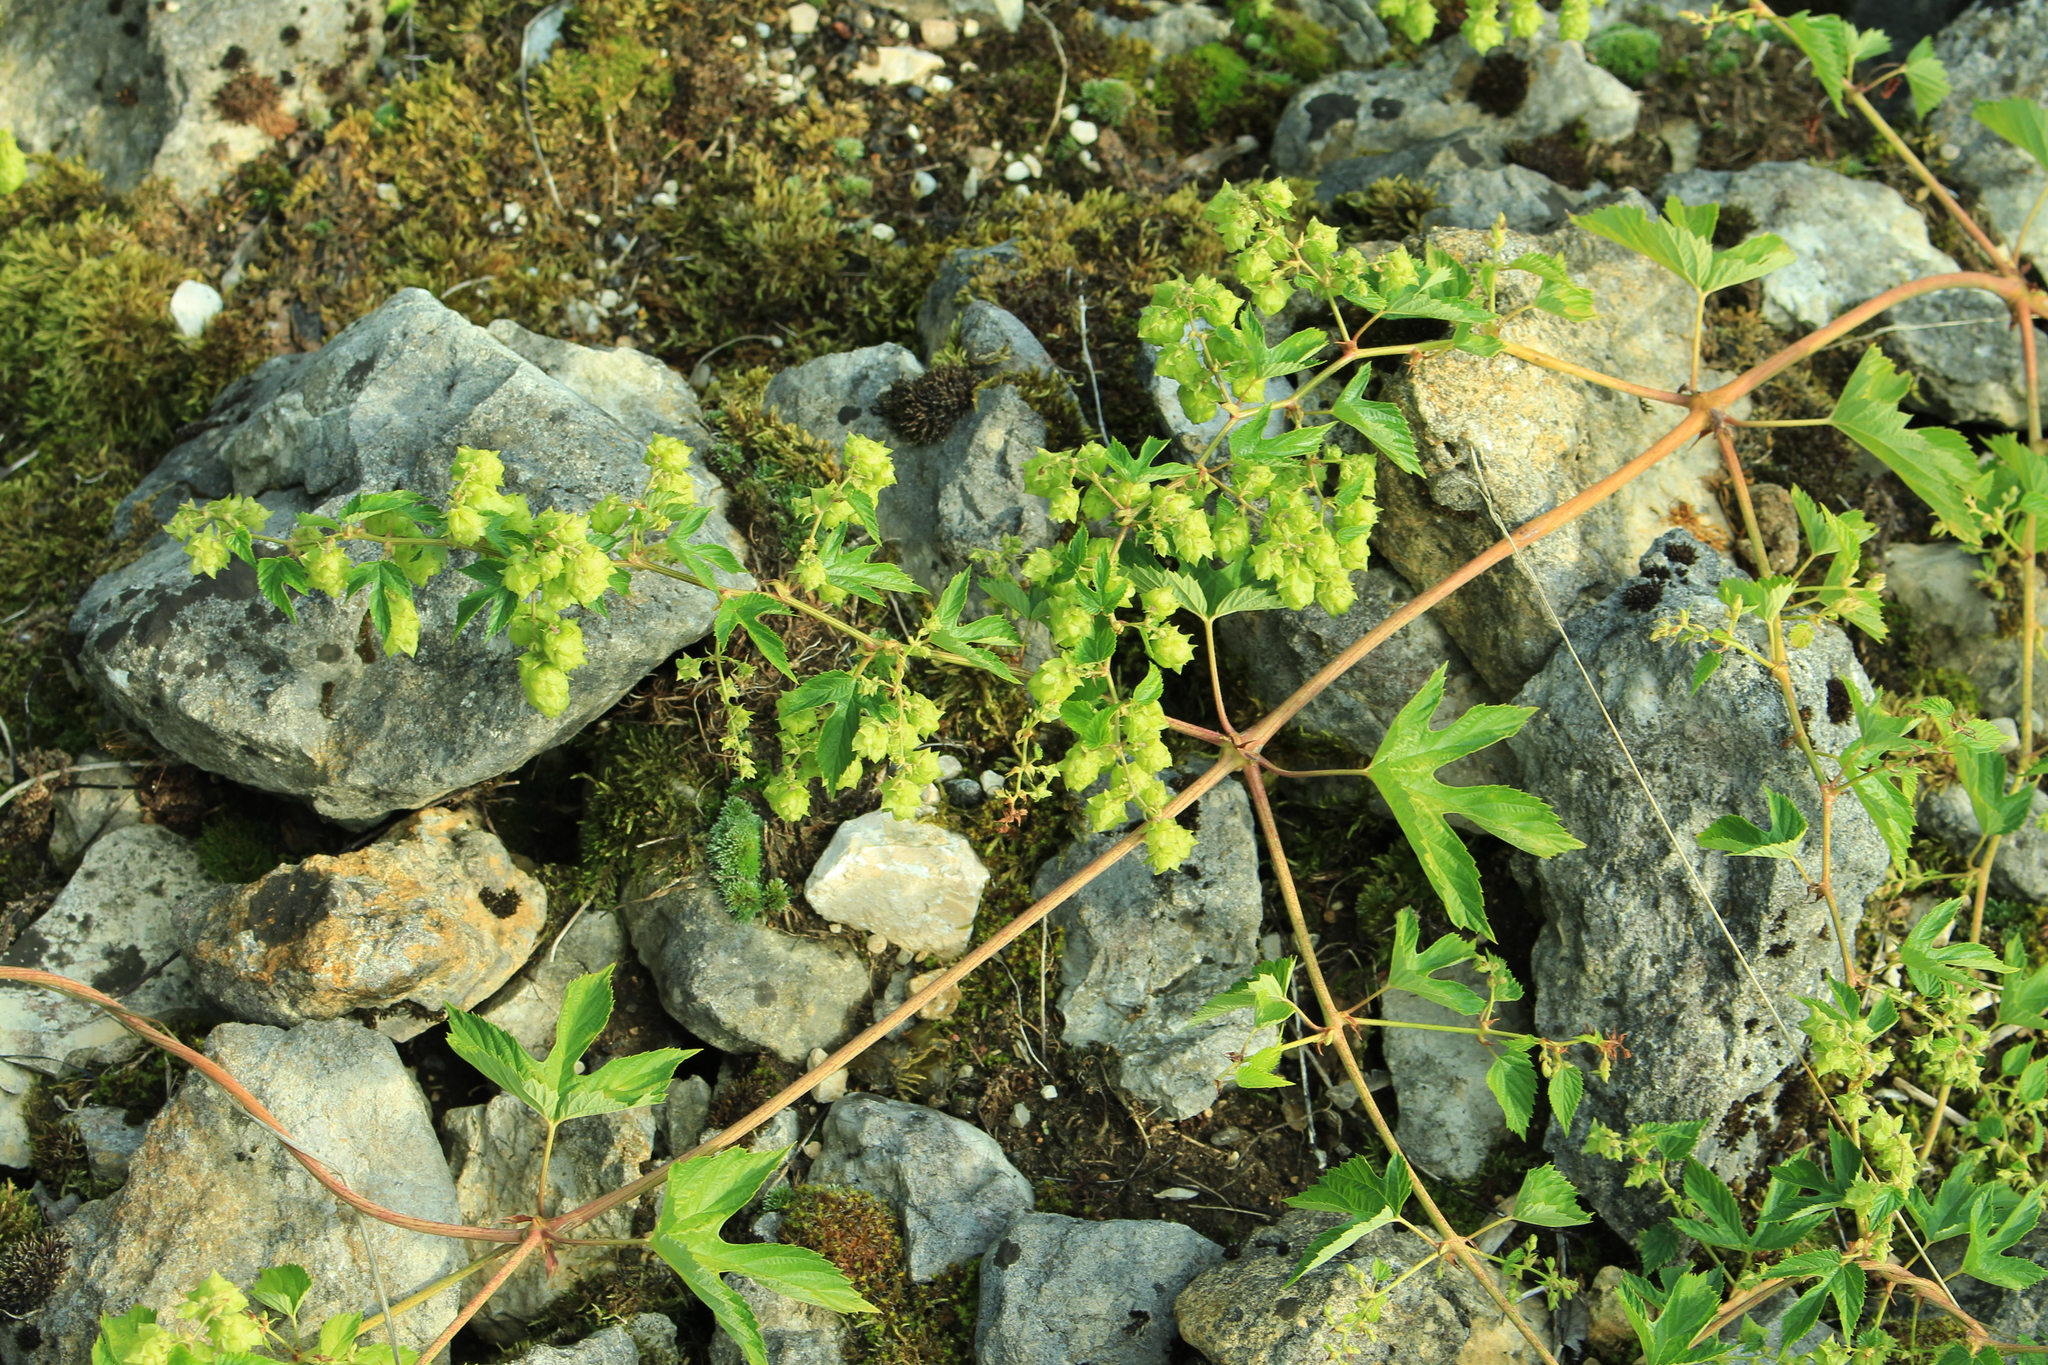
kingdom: Plantae
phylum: Tracheophyta
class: Magnoliopsida
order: Rosales
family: Cannabaceae
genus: Humulus
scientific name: Humulus lupulus
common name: Hop
